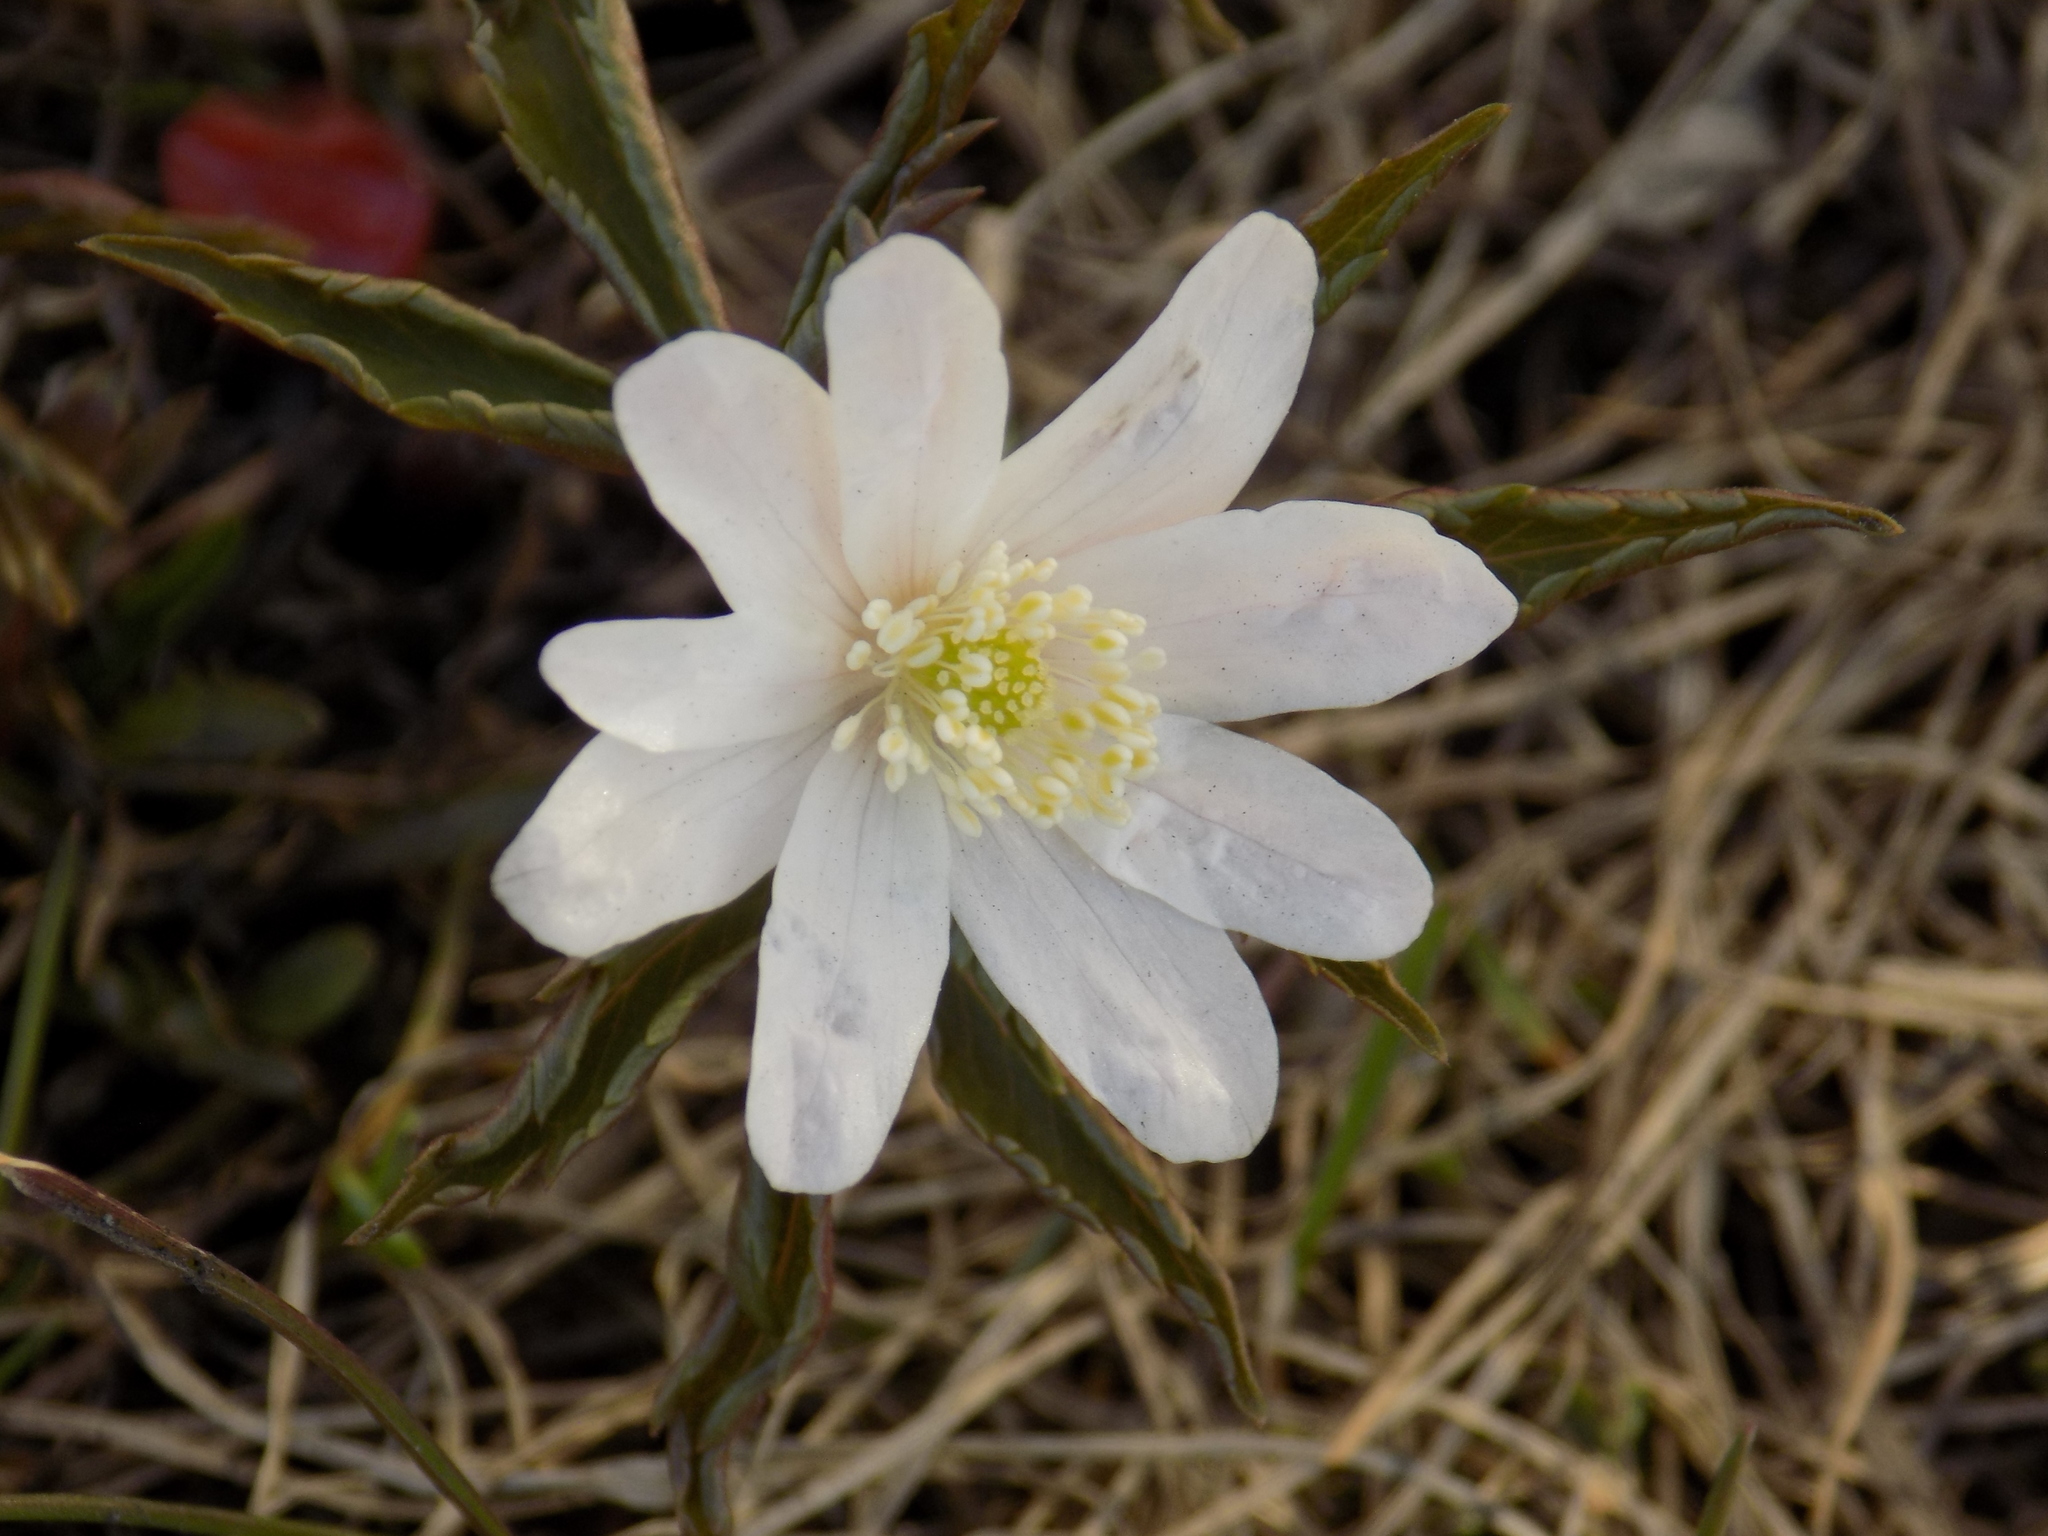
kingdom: Plantae
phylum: Tracheophyta
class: Magnoliopsida
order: Ranunculales
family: Ranunculaceae
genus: Anemone
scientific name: Anemone altaica
